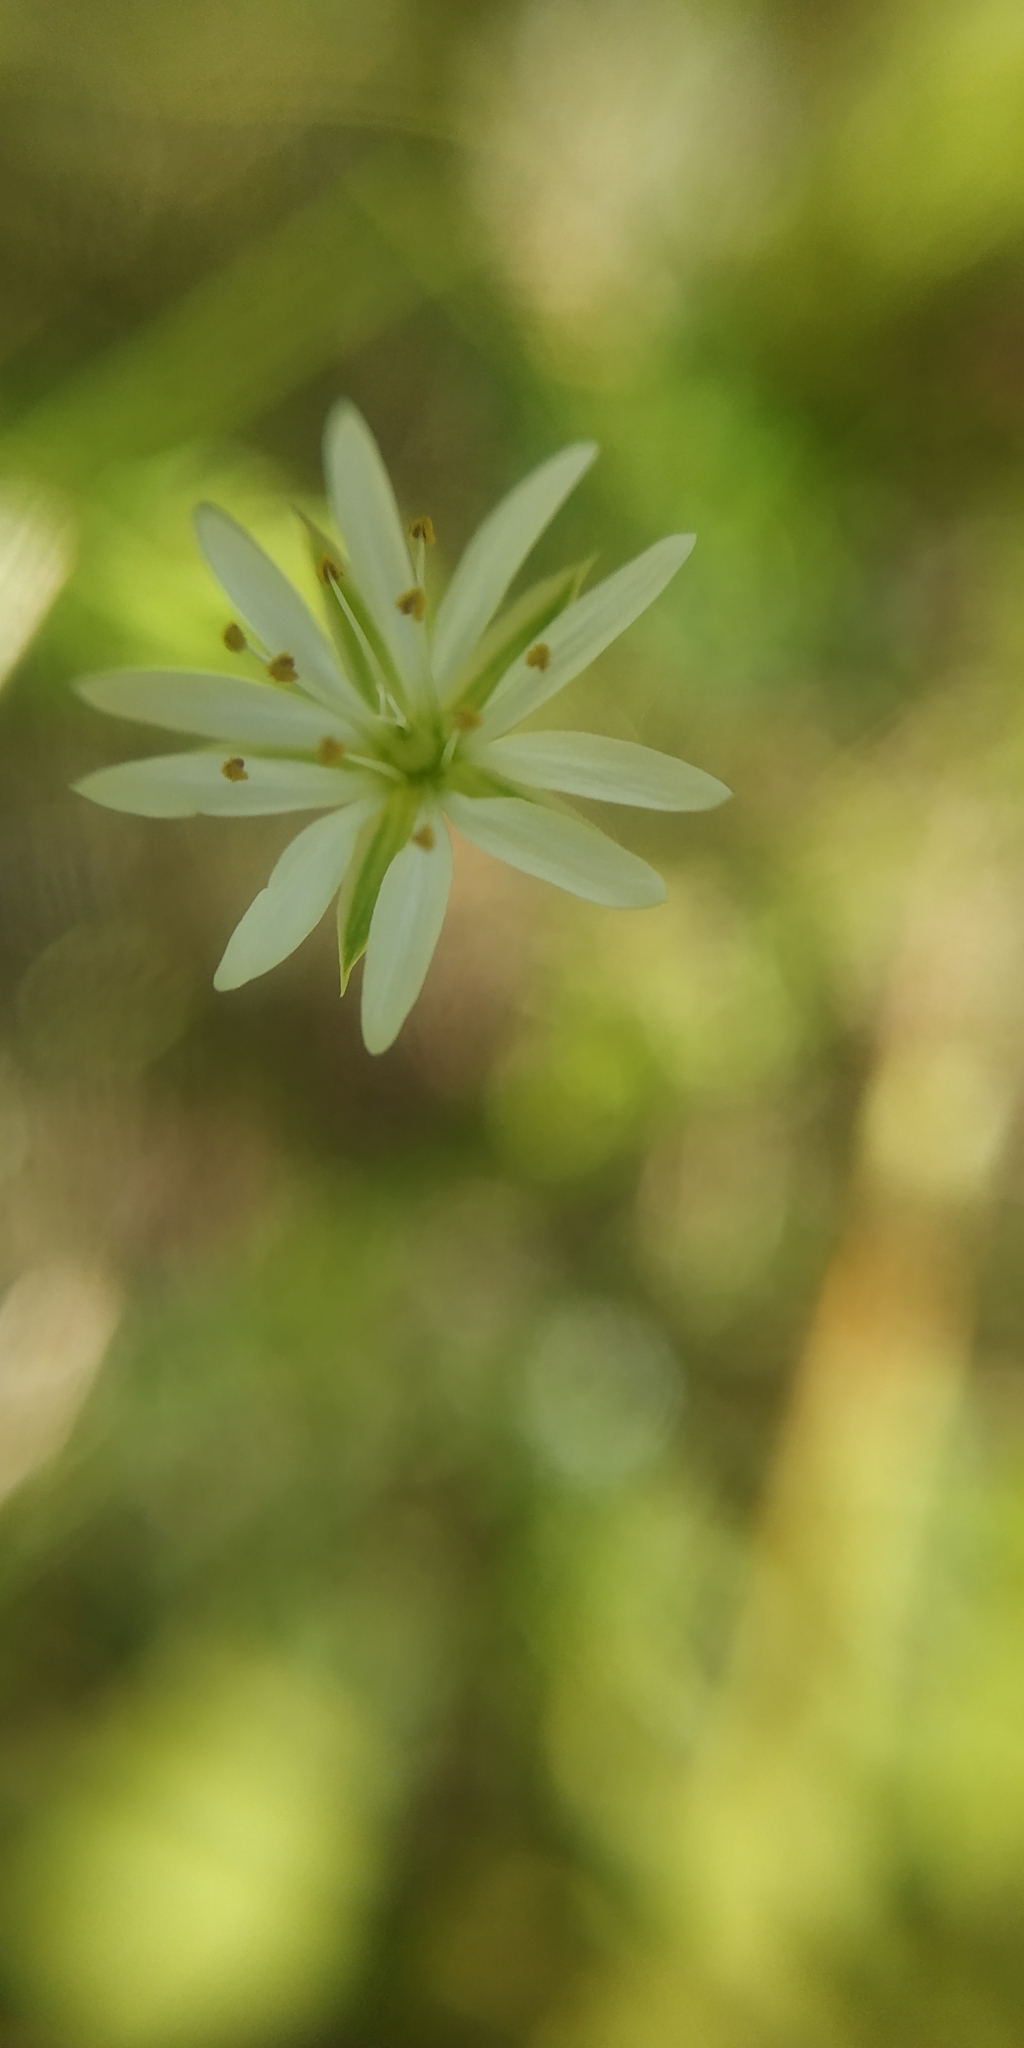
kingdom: Plantae
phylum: Tracheophyta
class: Magnoliopsida
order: Caryophyllales
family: Caryophyllaceae
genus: Stellaria
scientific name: Stellaria graminea
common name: Grass-like starwort
